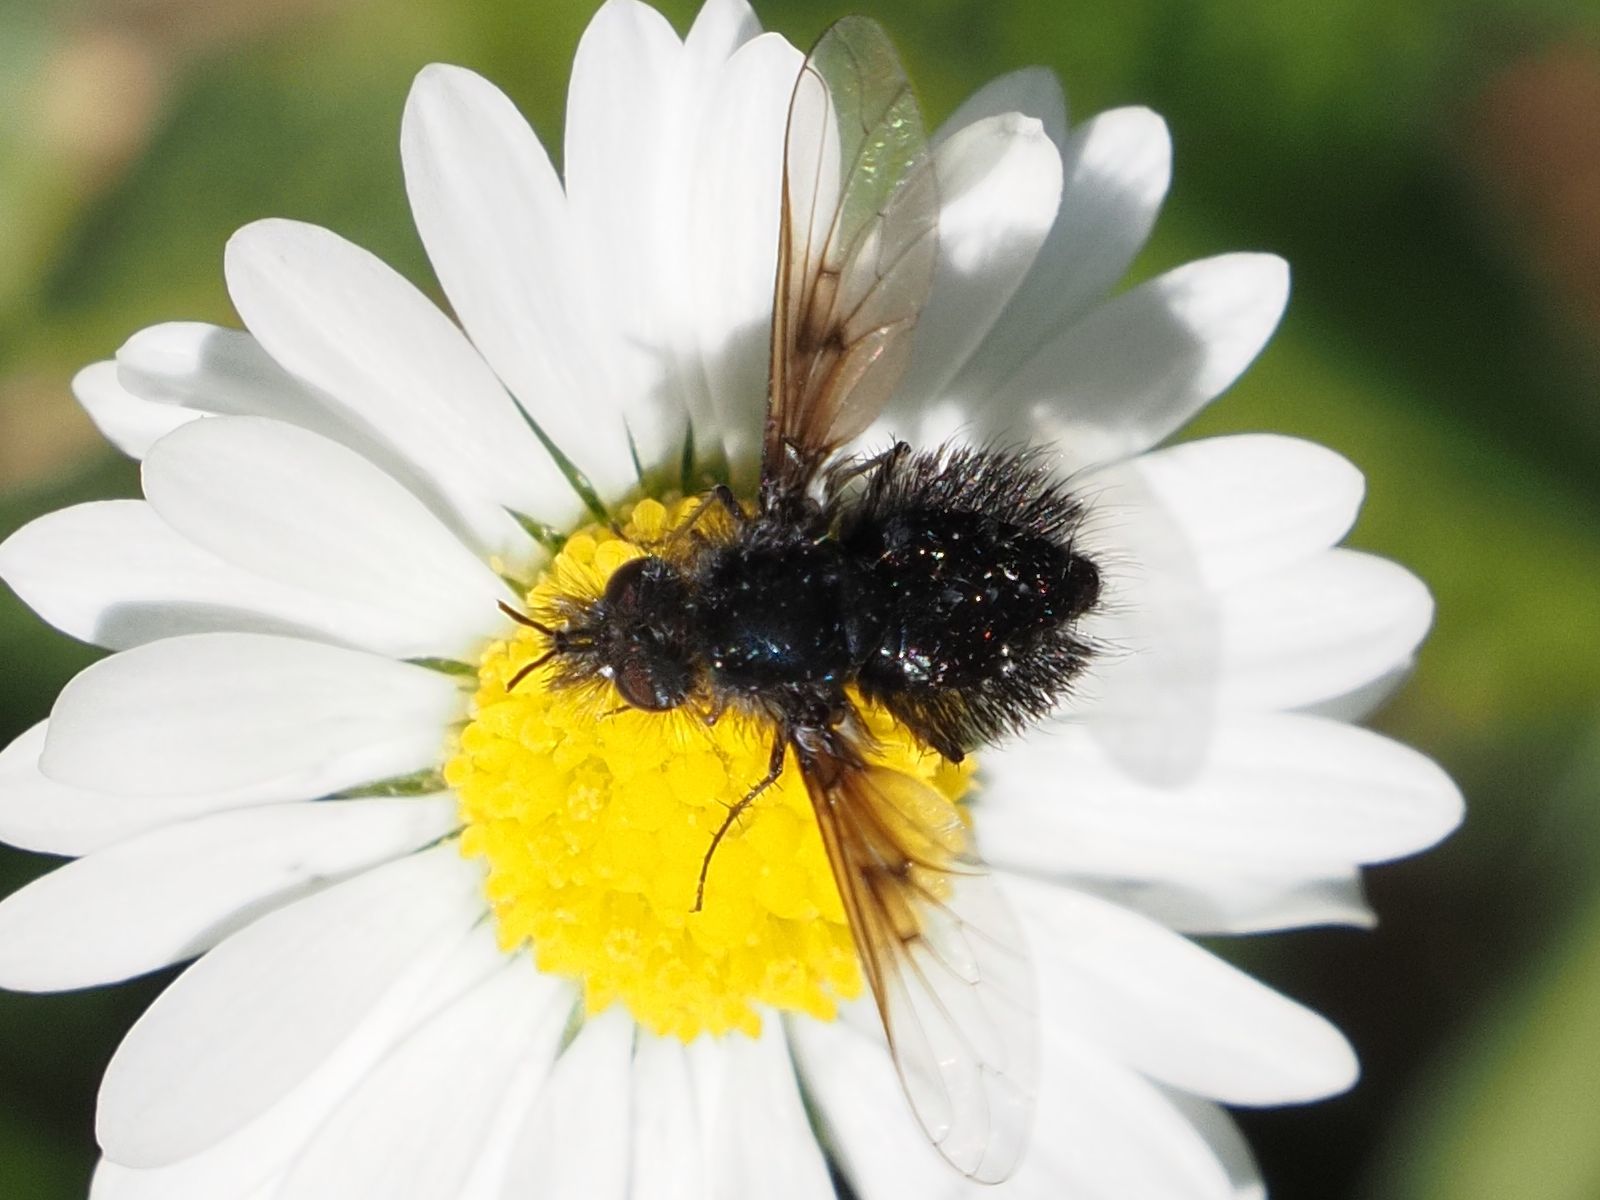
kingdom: Animalia
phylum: Arthropoda
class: Insecta
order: Diptera
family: Bombyliidae
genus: Bombylella
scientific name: Bombylella atra
